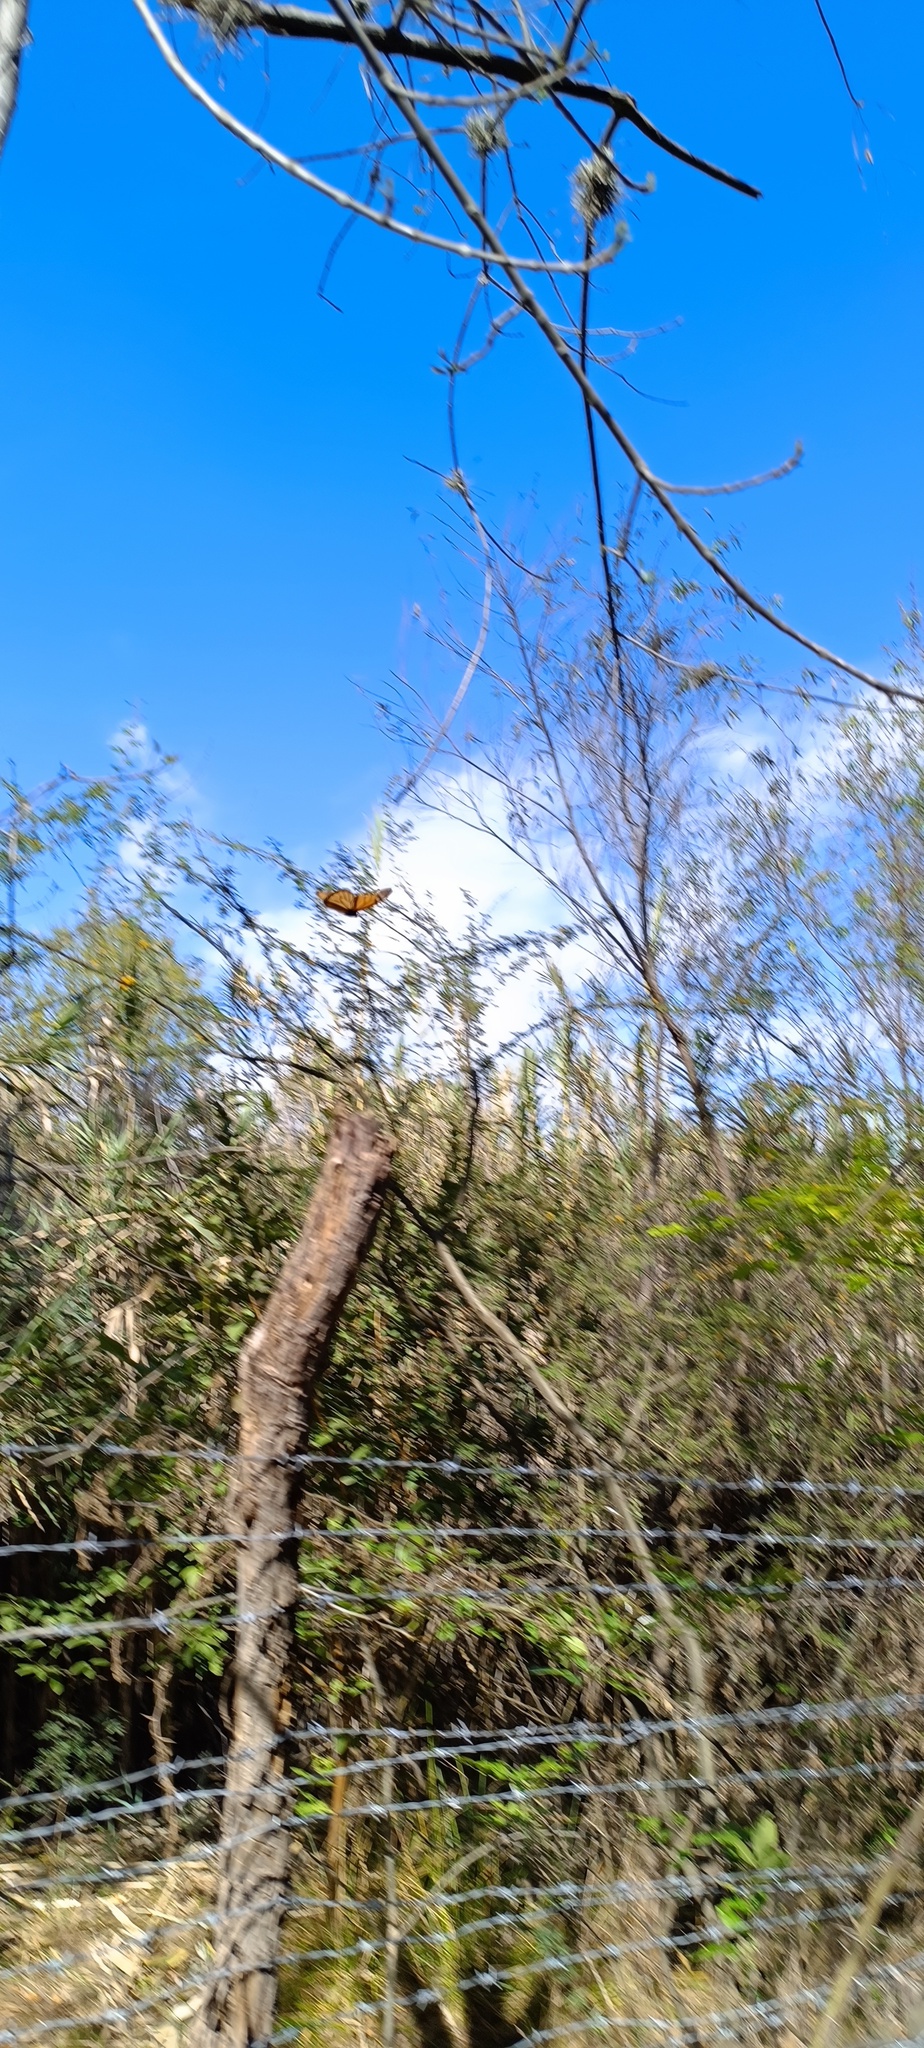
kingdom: Animalia
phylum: Arthropoda
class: Insecta
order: Lepidoptera
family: Nymphalidae
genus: Danaus
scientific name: Danaus plexippus
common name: Monarch
